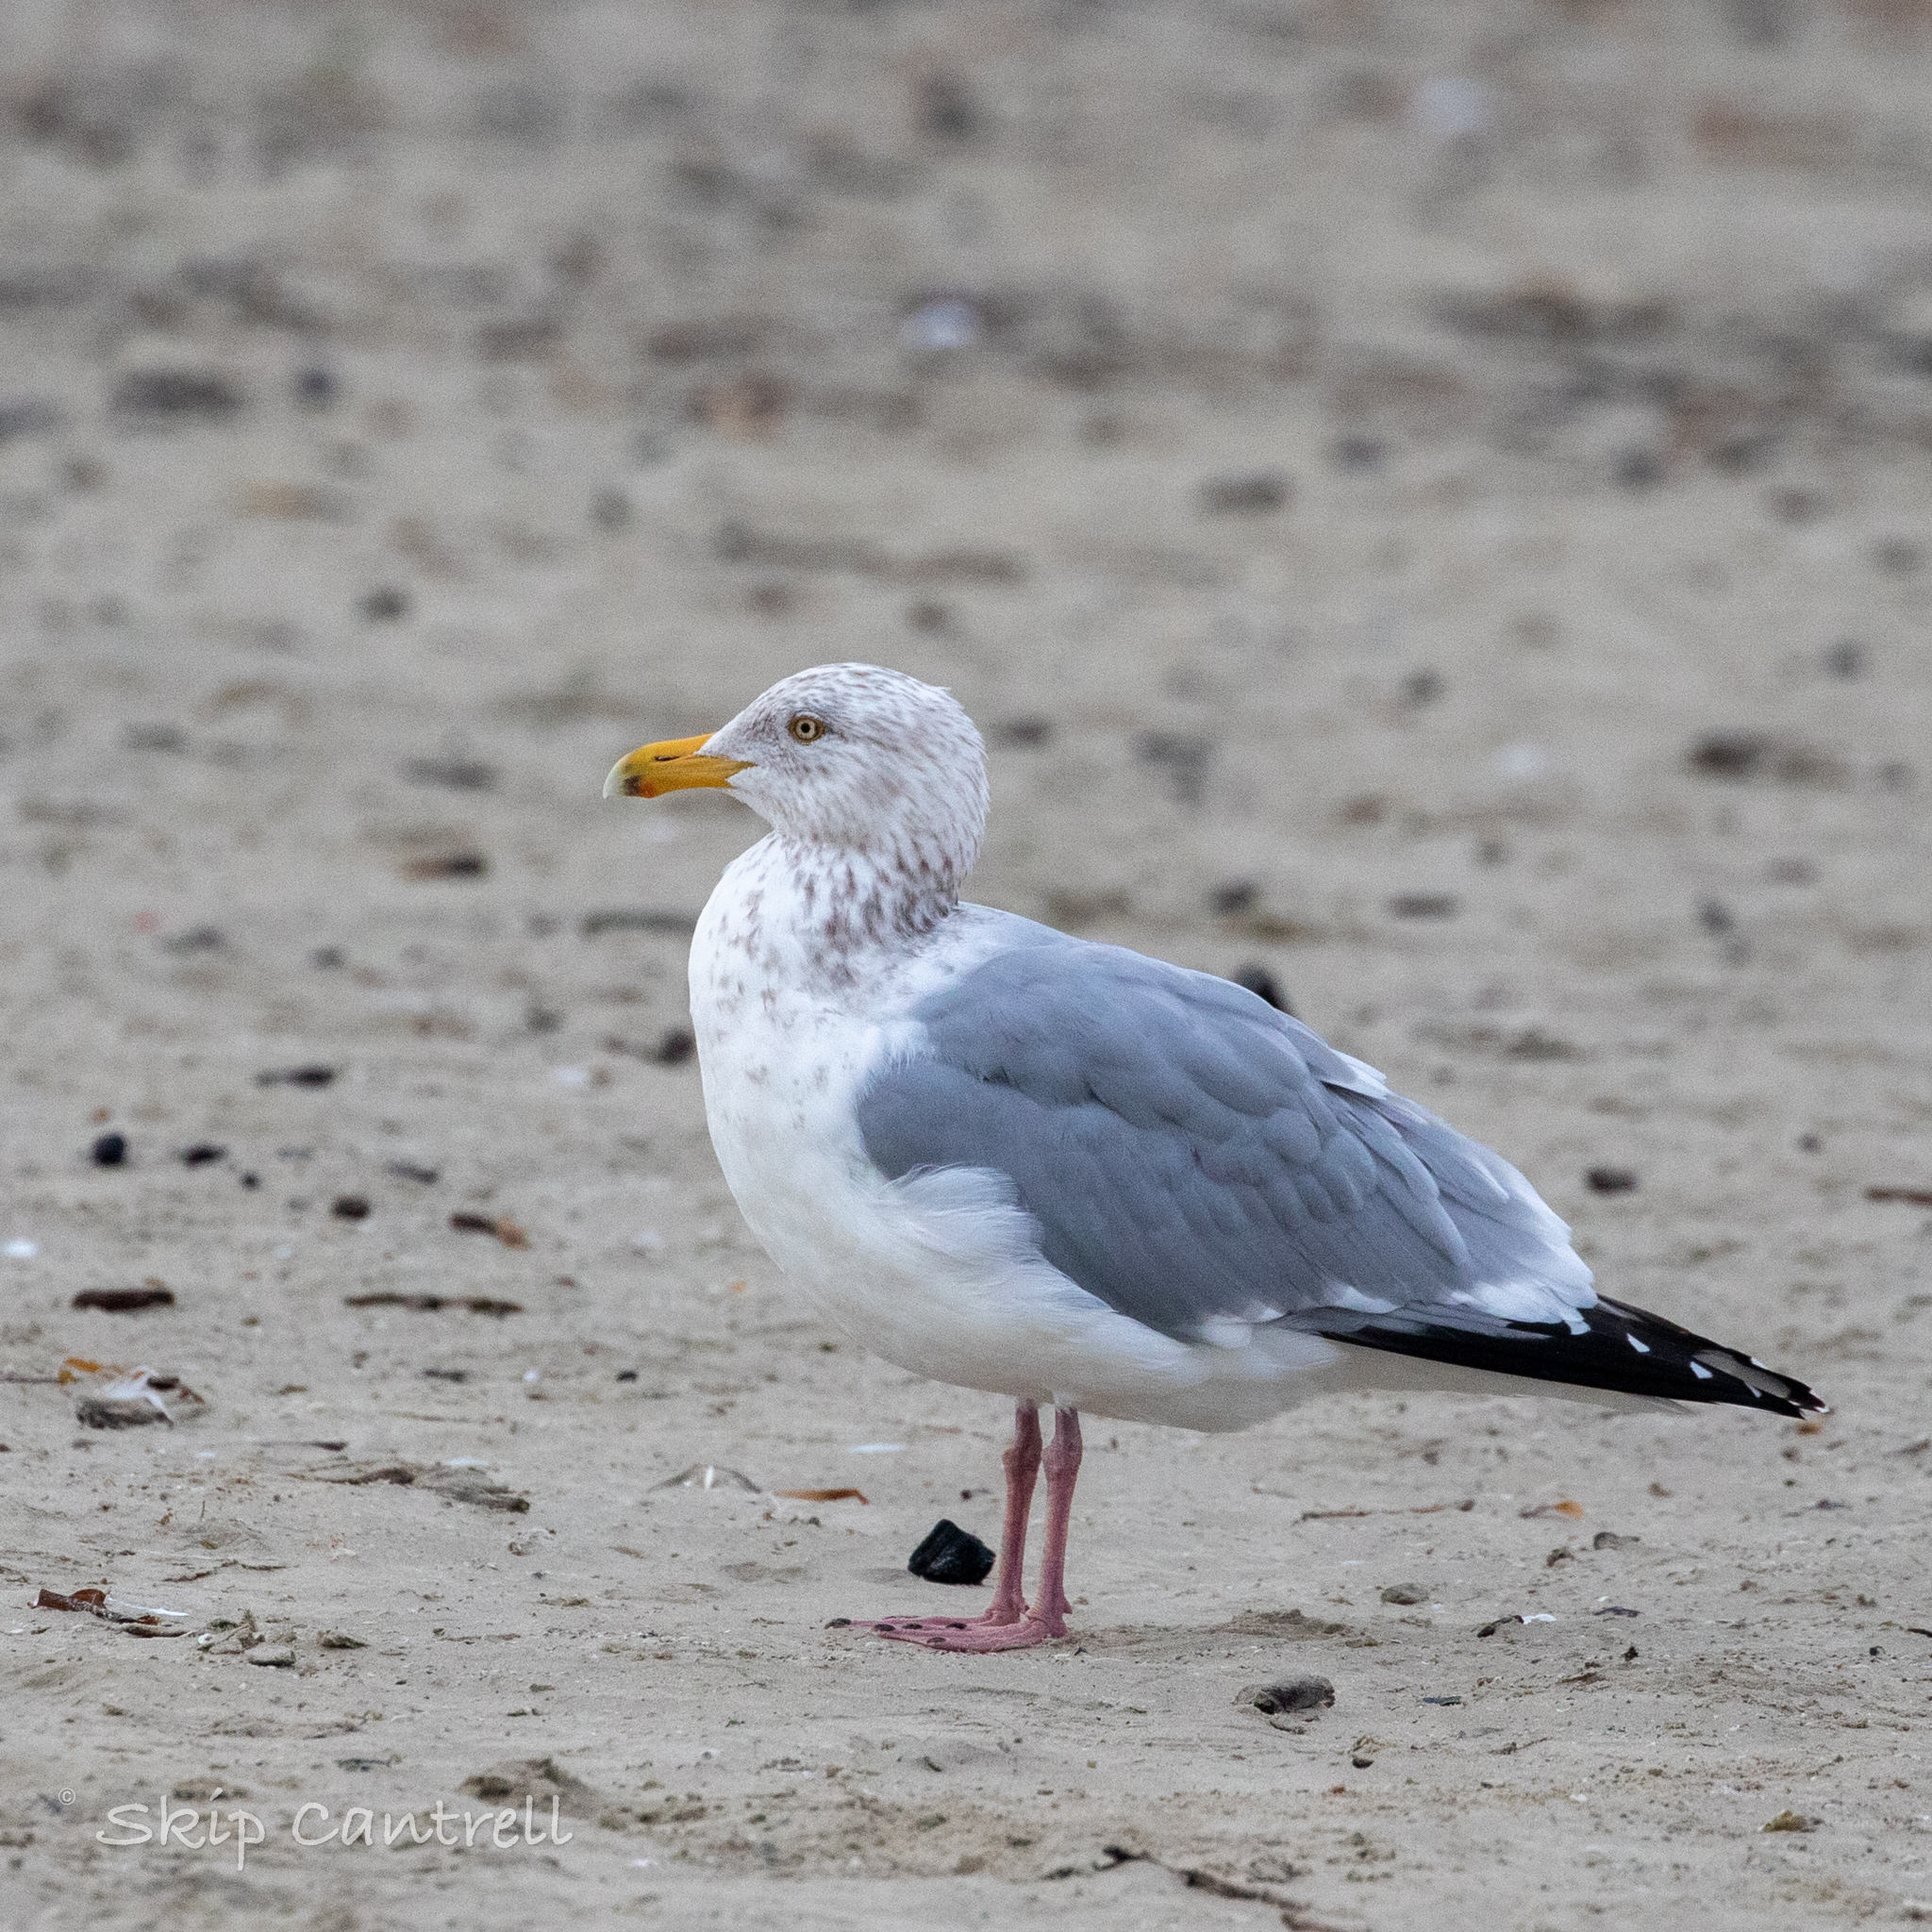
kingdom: Animalia
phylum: Chordata
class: Aves
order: Charadriiformes
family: Laridae
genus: Larus
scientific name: Larus argentatus
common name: Herring gull
